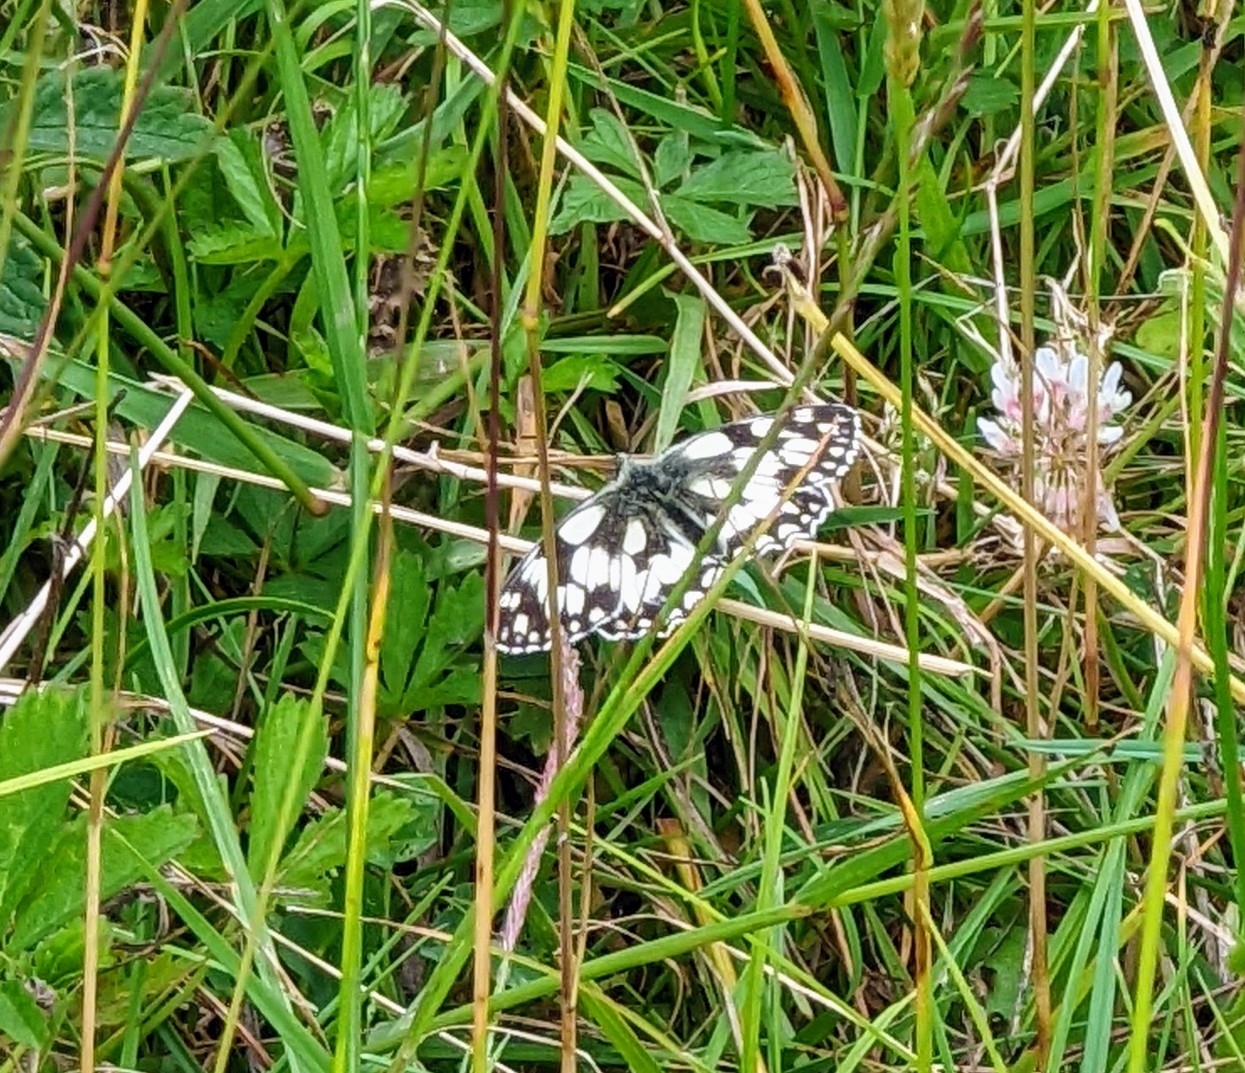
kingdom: Animalia
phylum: Arthropoda
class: Insecta
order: Lepidoptera
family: Nymphalidae
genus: Melanargia
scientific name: Melanargia galathea
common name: Marbled white
